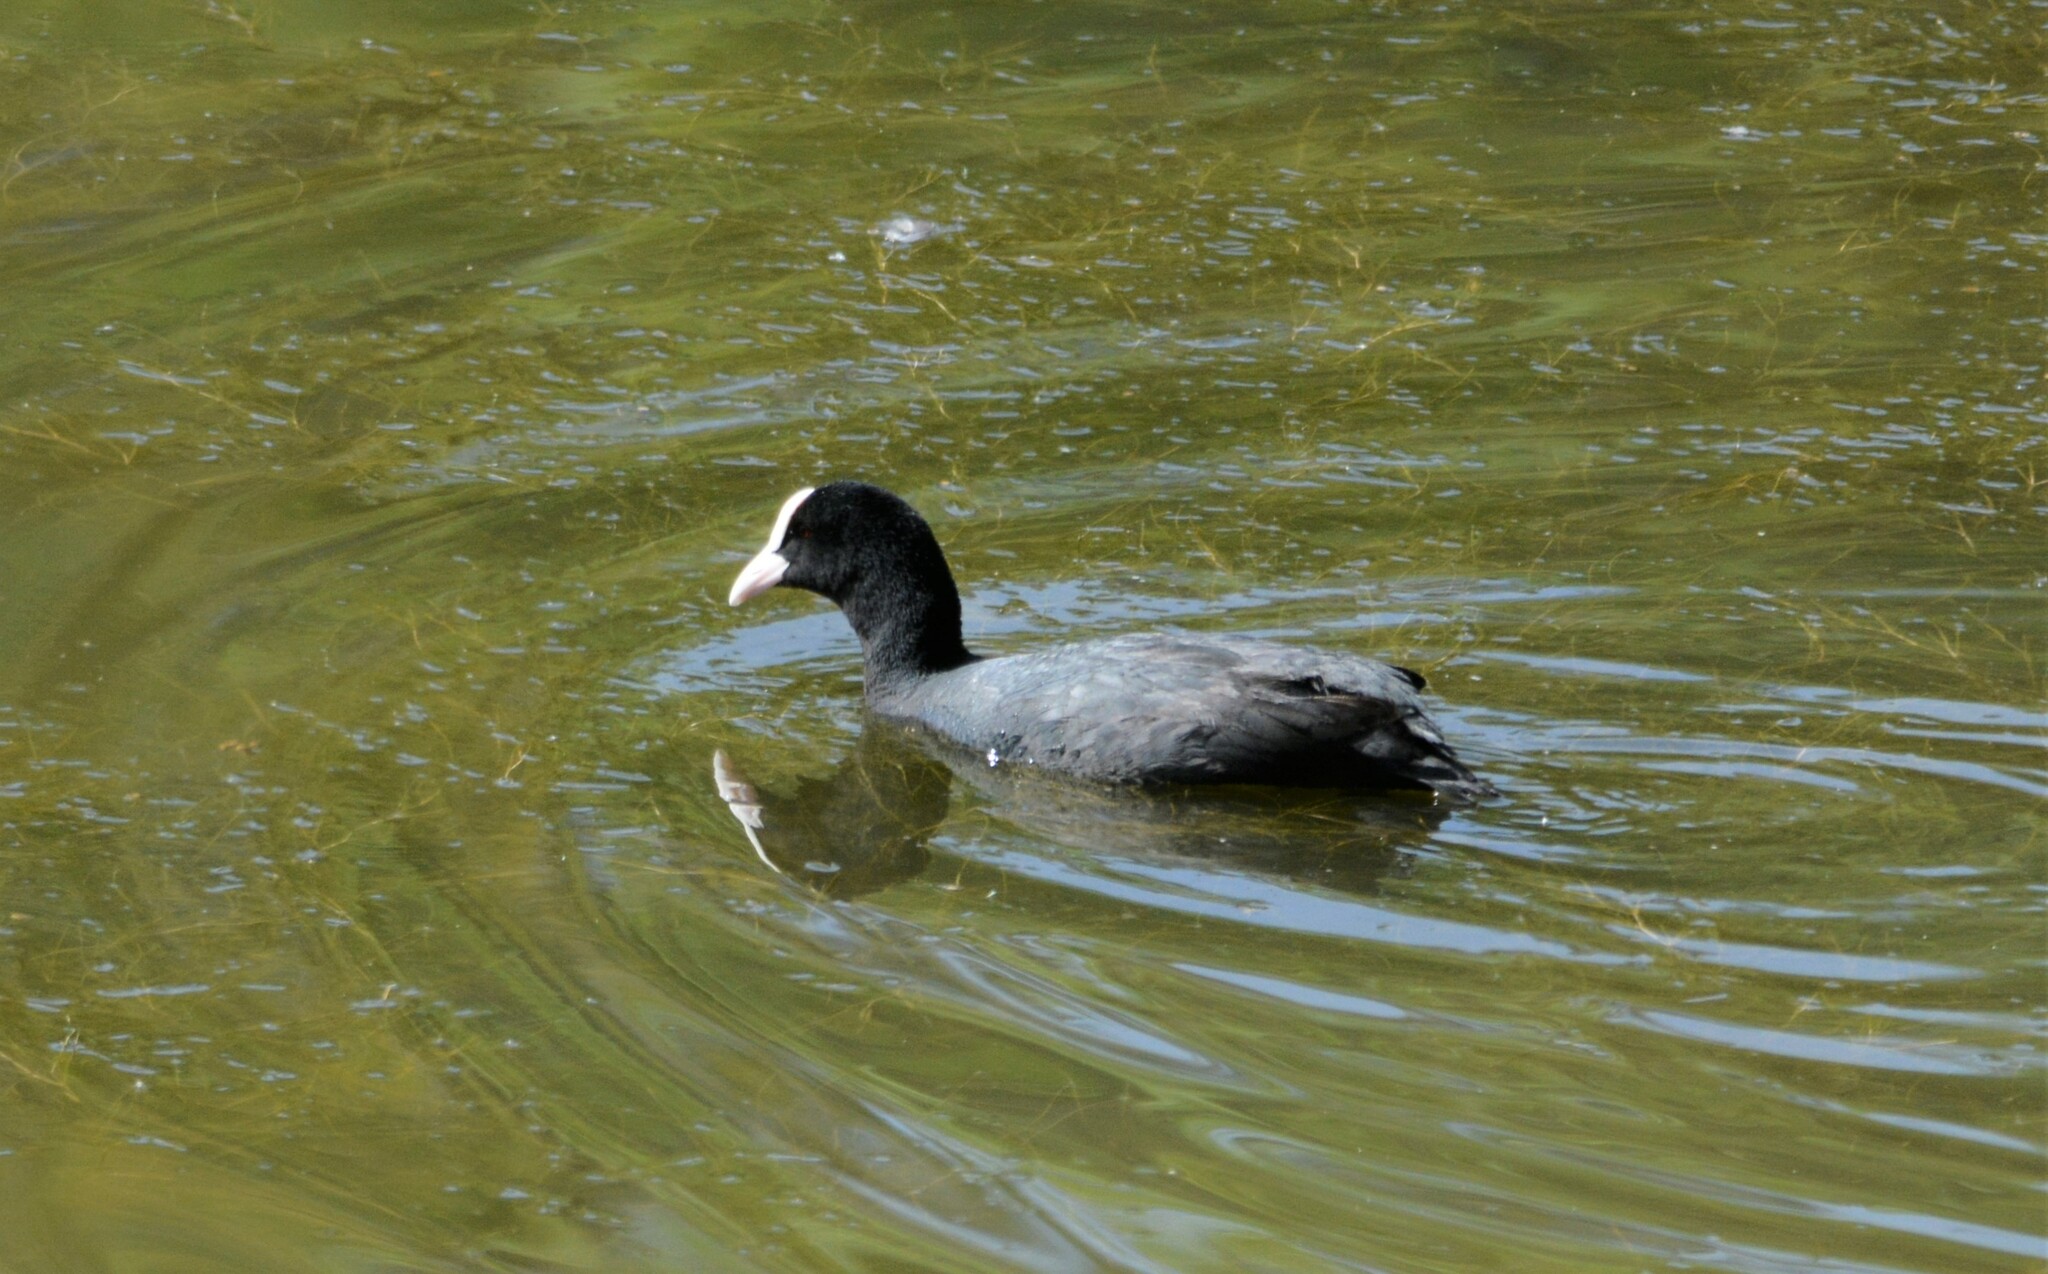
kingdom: Animalia
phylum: Chordata
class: Aves
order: Gruiformes
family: Rallidae
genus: Fulica
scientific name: Fulica atra
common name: Eurasian coot
